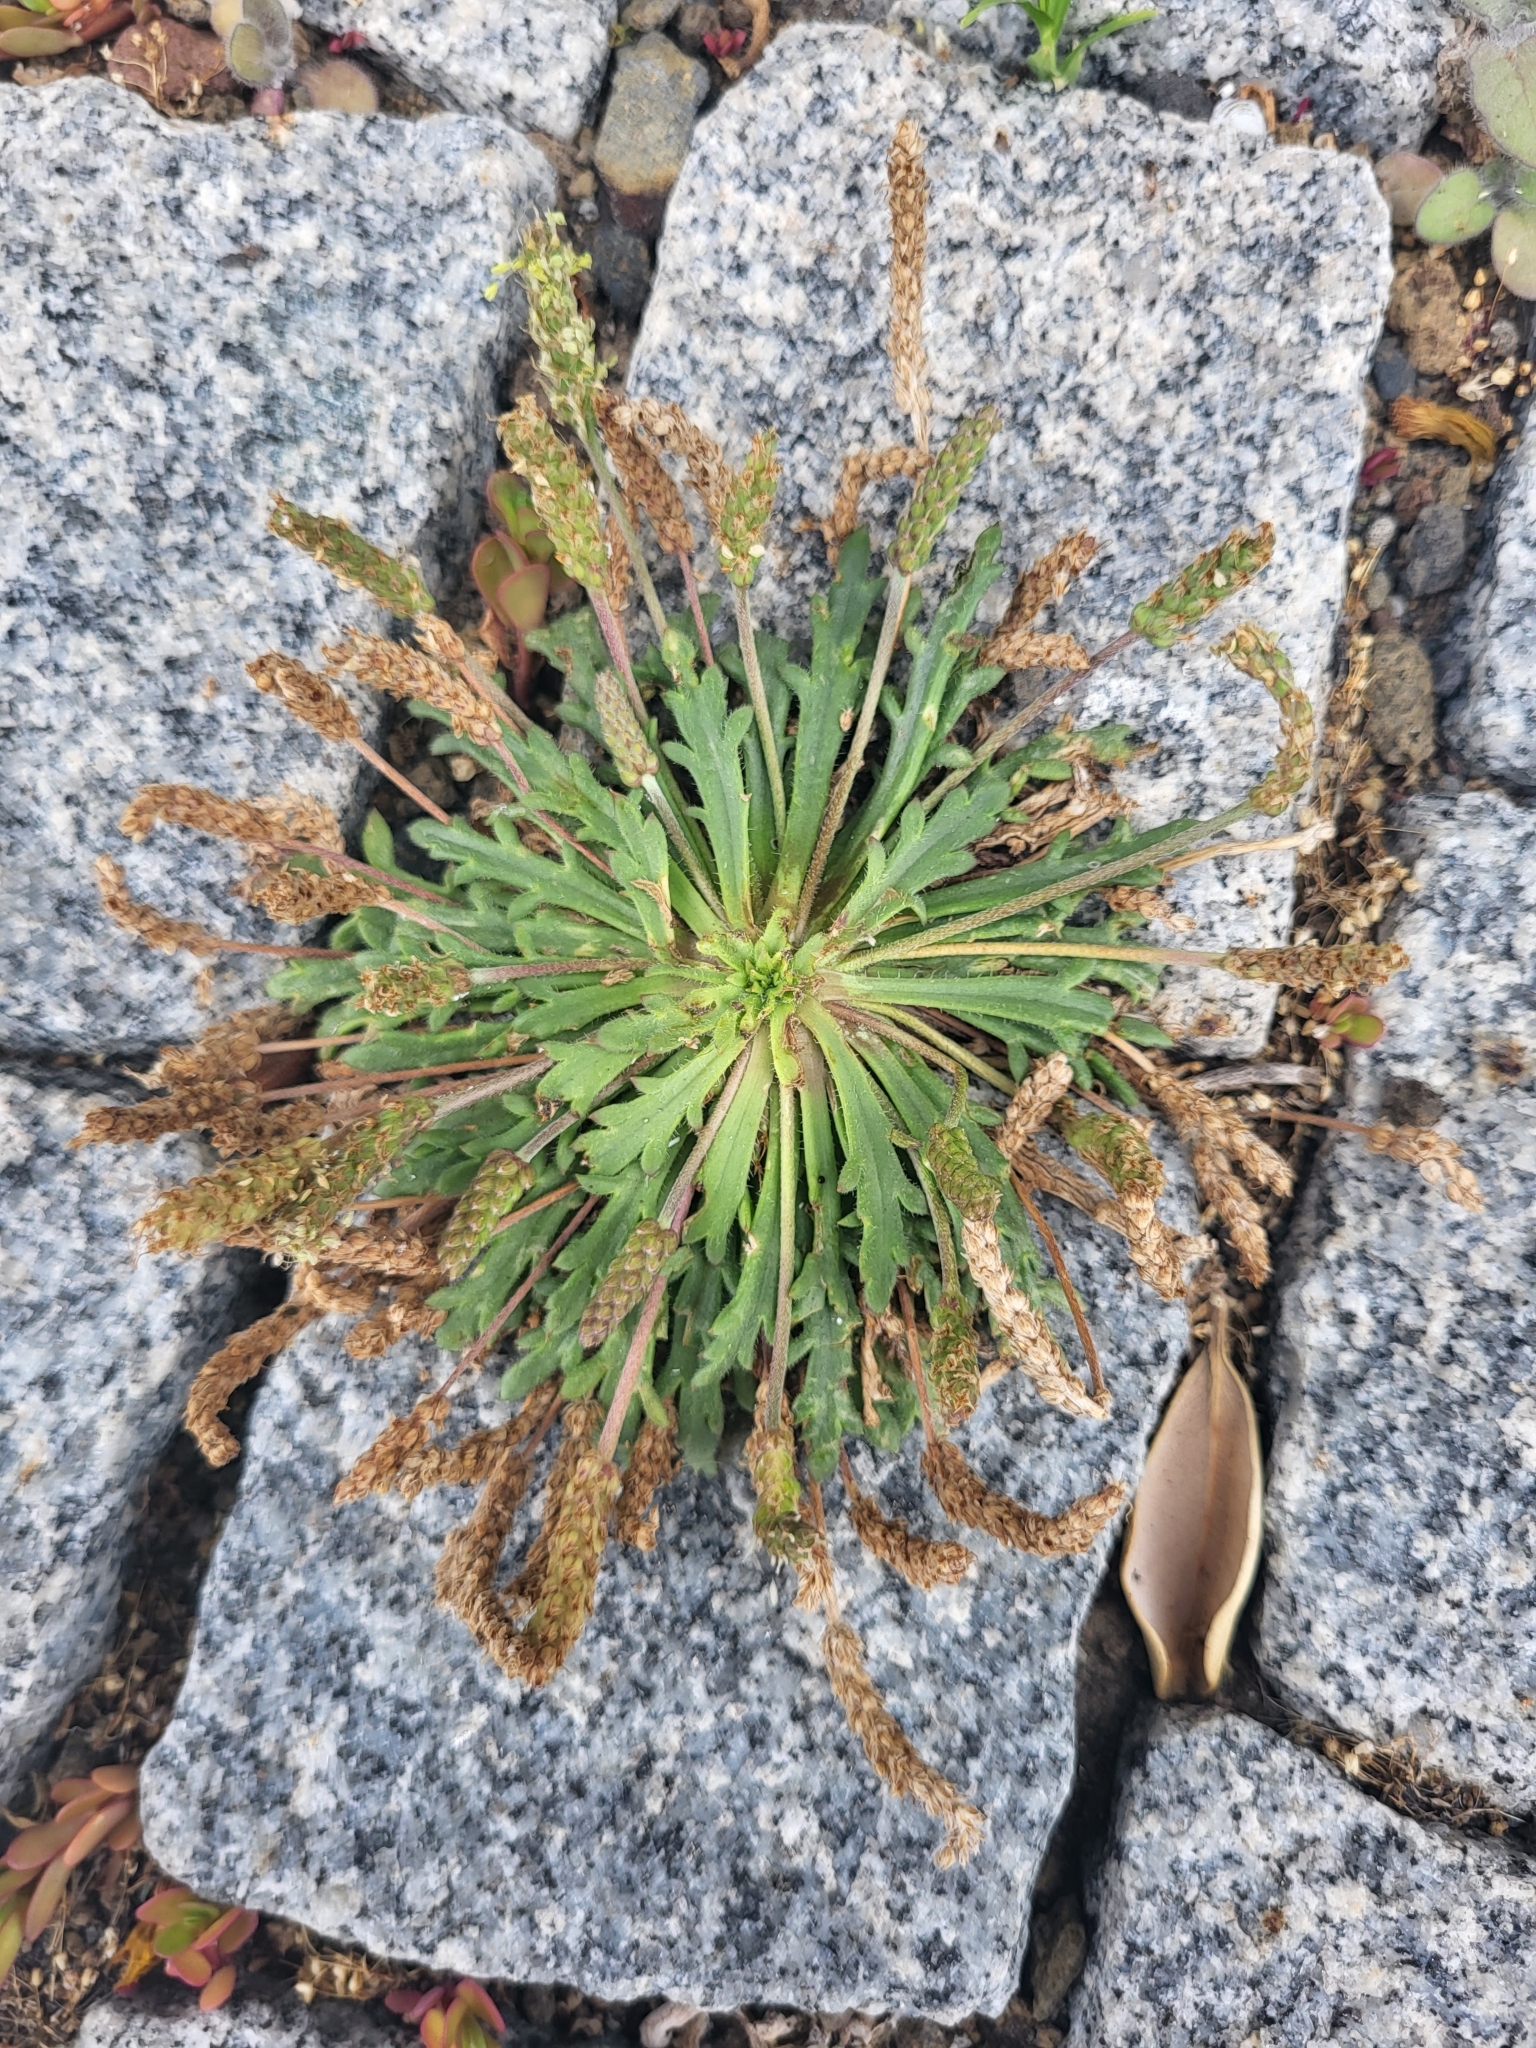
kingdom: Plantae
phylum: Tracheophyta
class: Magnoliopsida
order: Lamiales
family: Plantaginaceae
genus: Plantago
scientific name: Plantago coronopus
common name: Buck's-horn plantain
